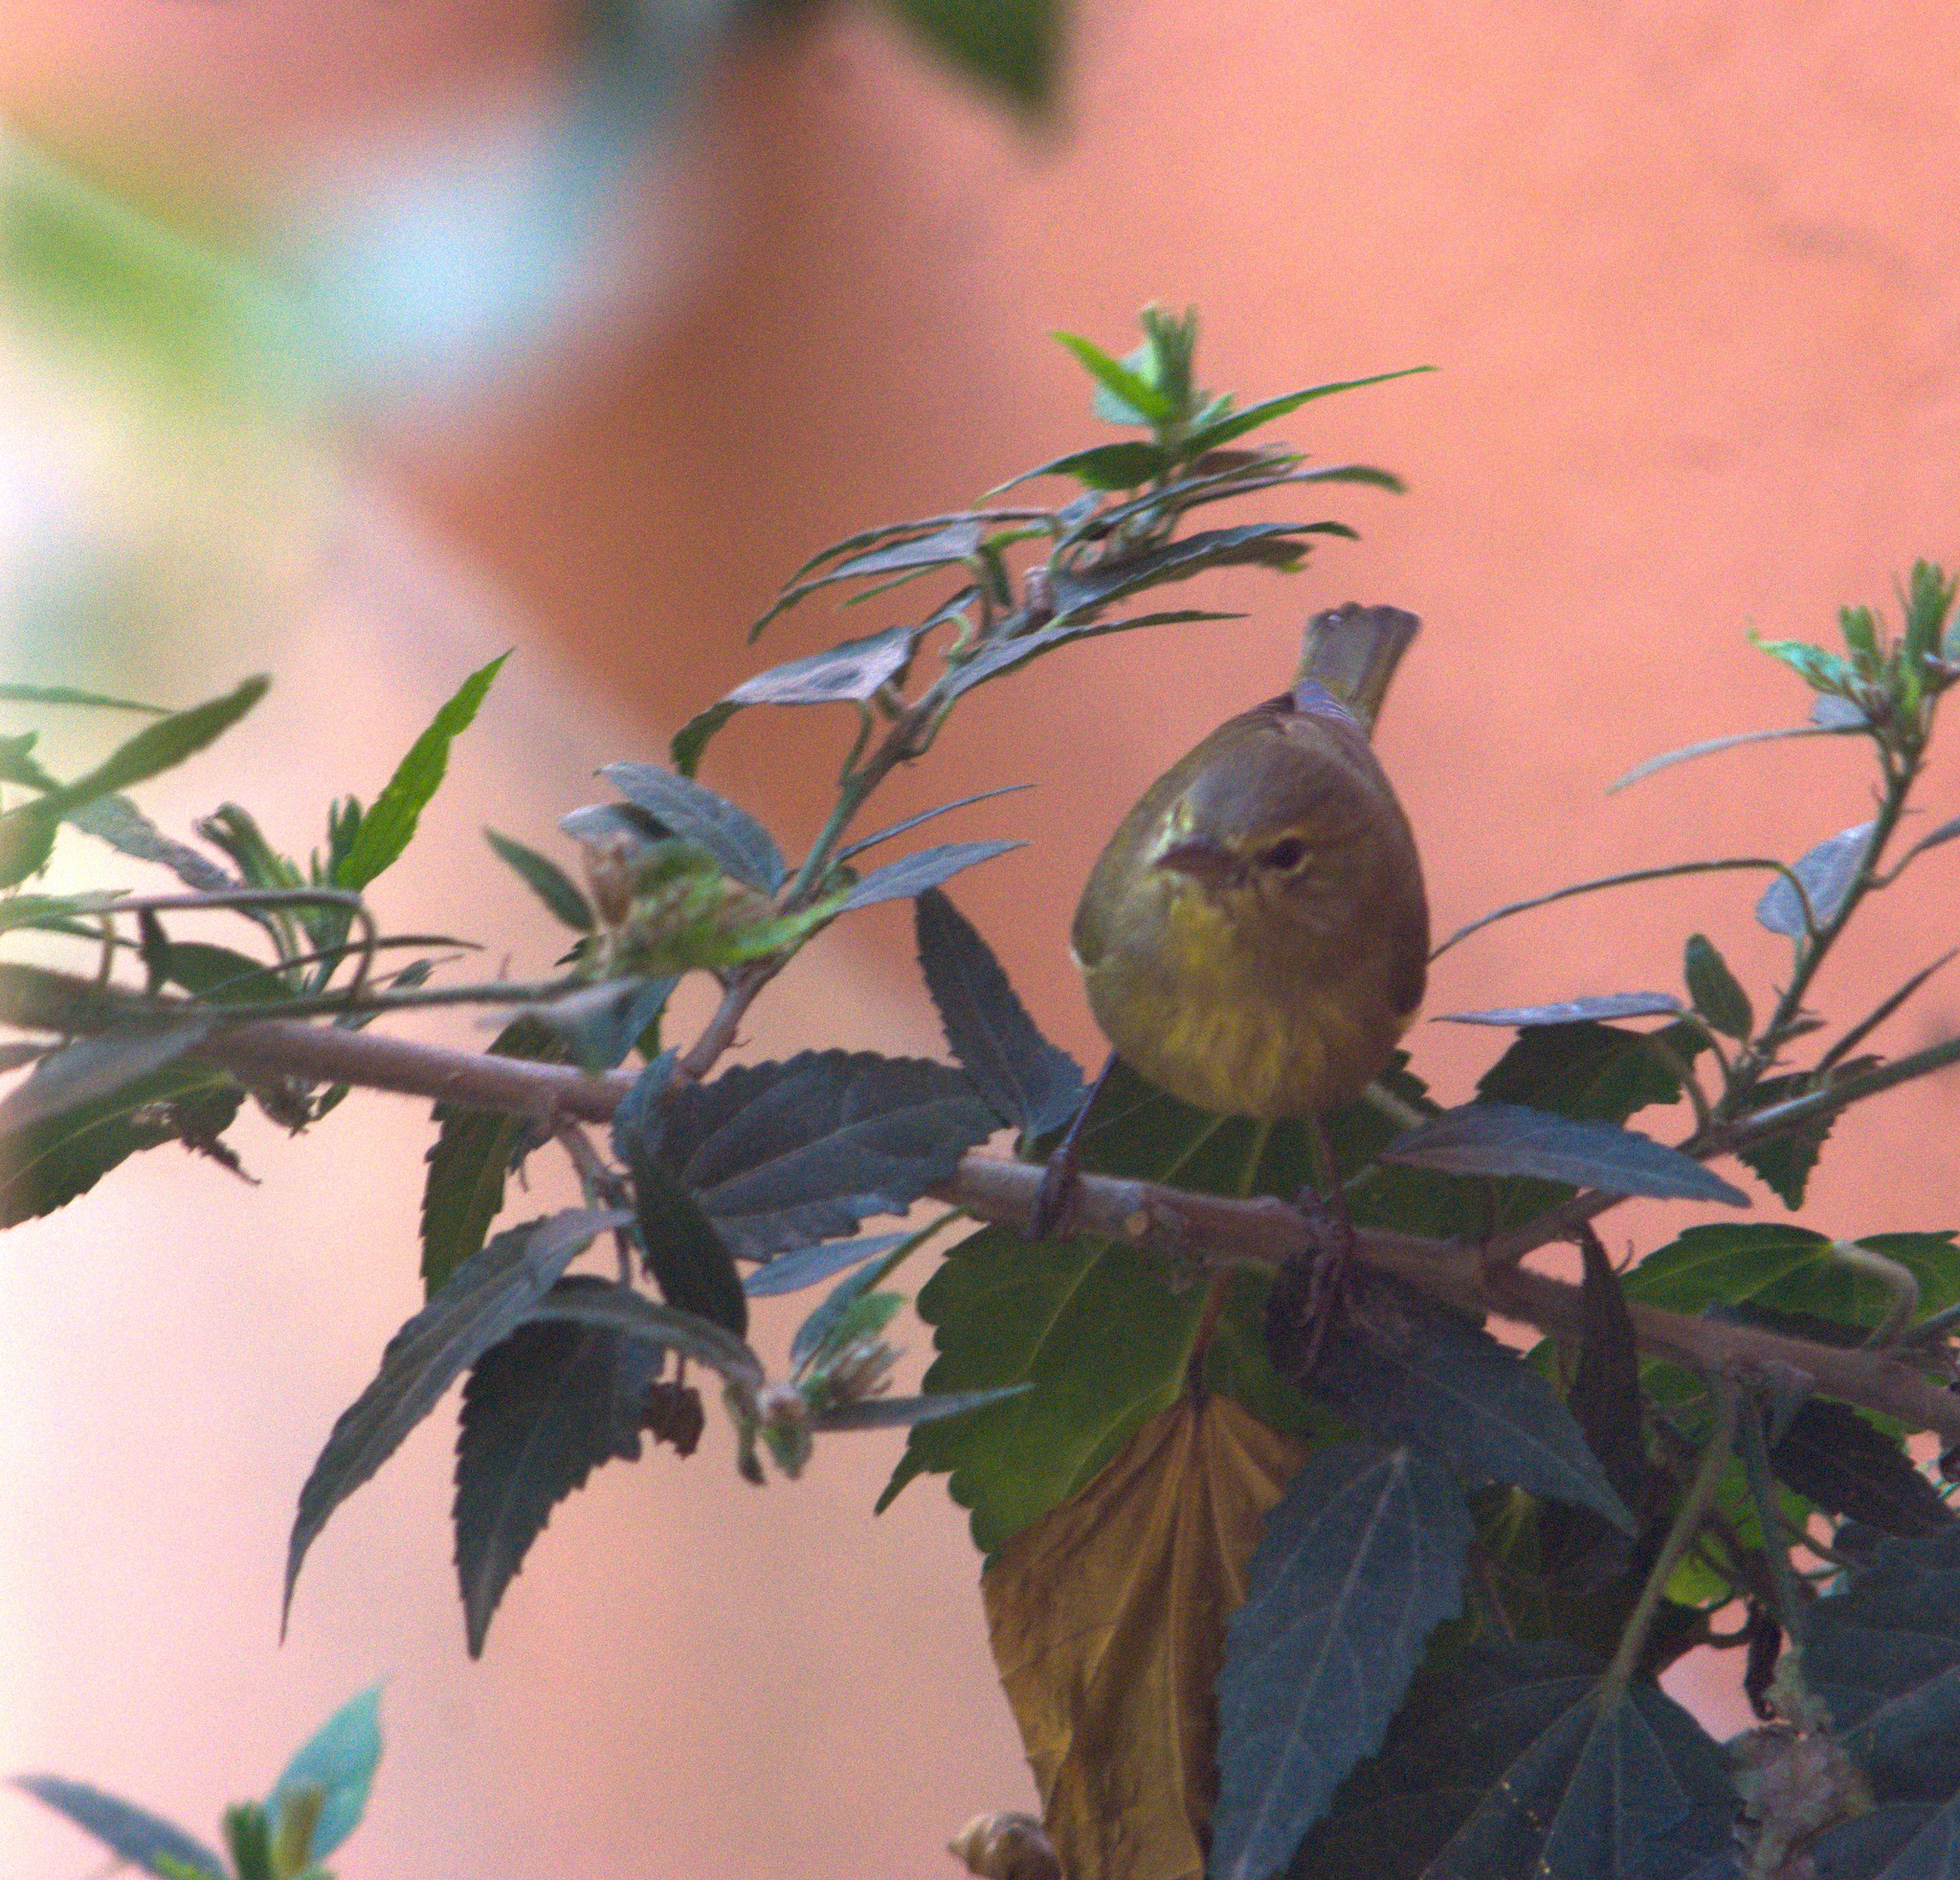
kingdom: Animalia
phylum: Chordata
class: Aves
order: Passeriformes
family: Parulidae
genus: Leiothlypis
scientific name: Leiothlypis celata
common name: Orange-crowned warbler
